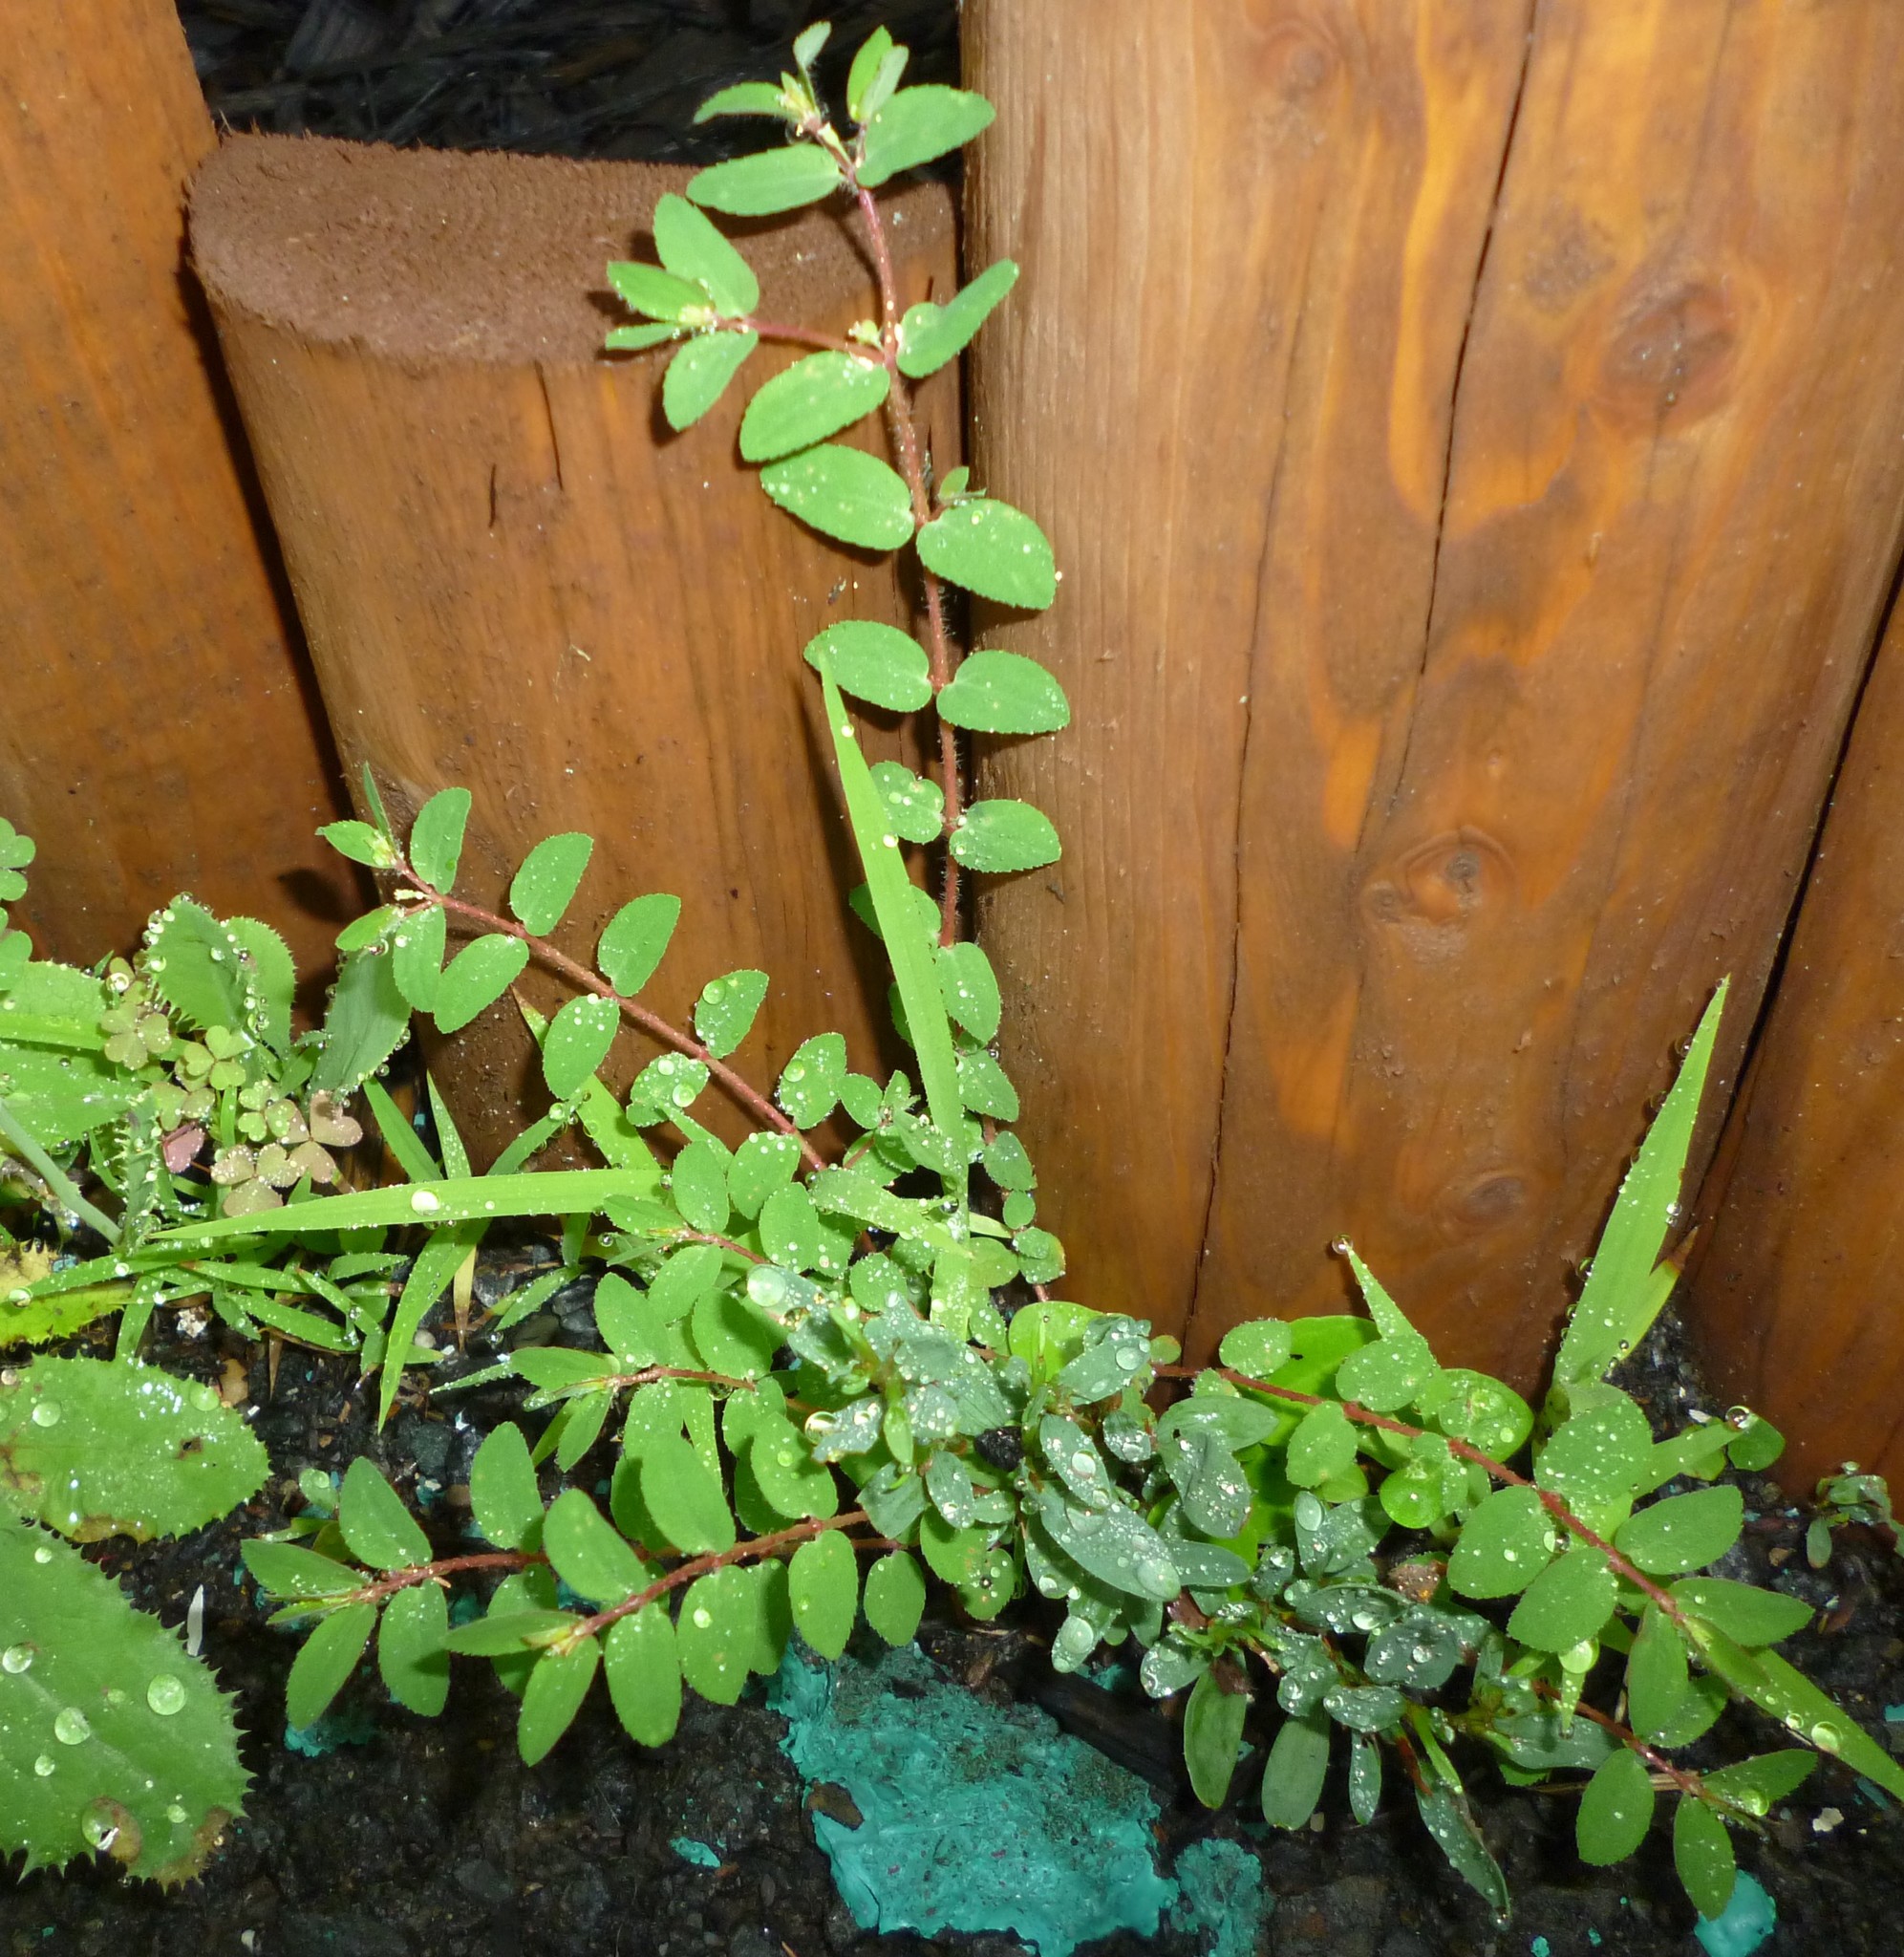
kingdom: Plantae
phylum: Tracheophyta
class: Magnoliopsida
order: Malpighiales
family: Euphorbiaceae
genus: Euphorbia
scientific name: Euphorbia vermiculata
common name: Hairy spurge
